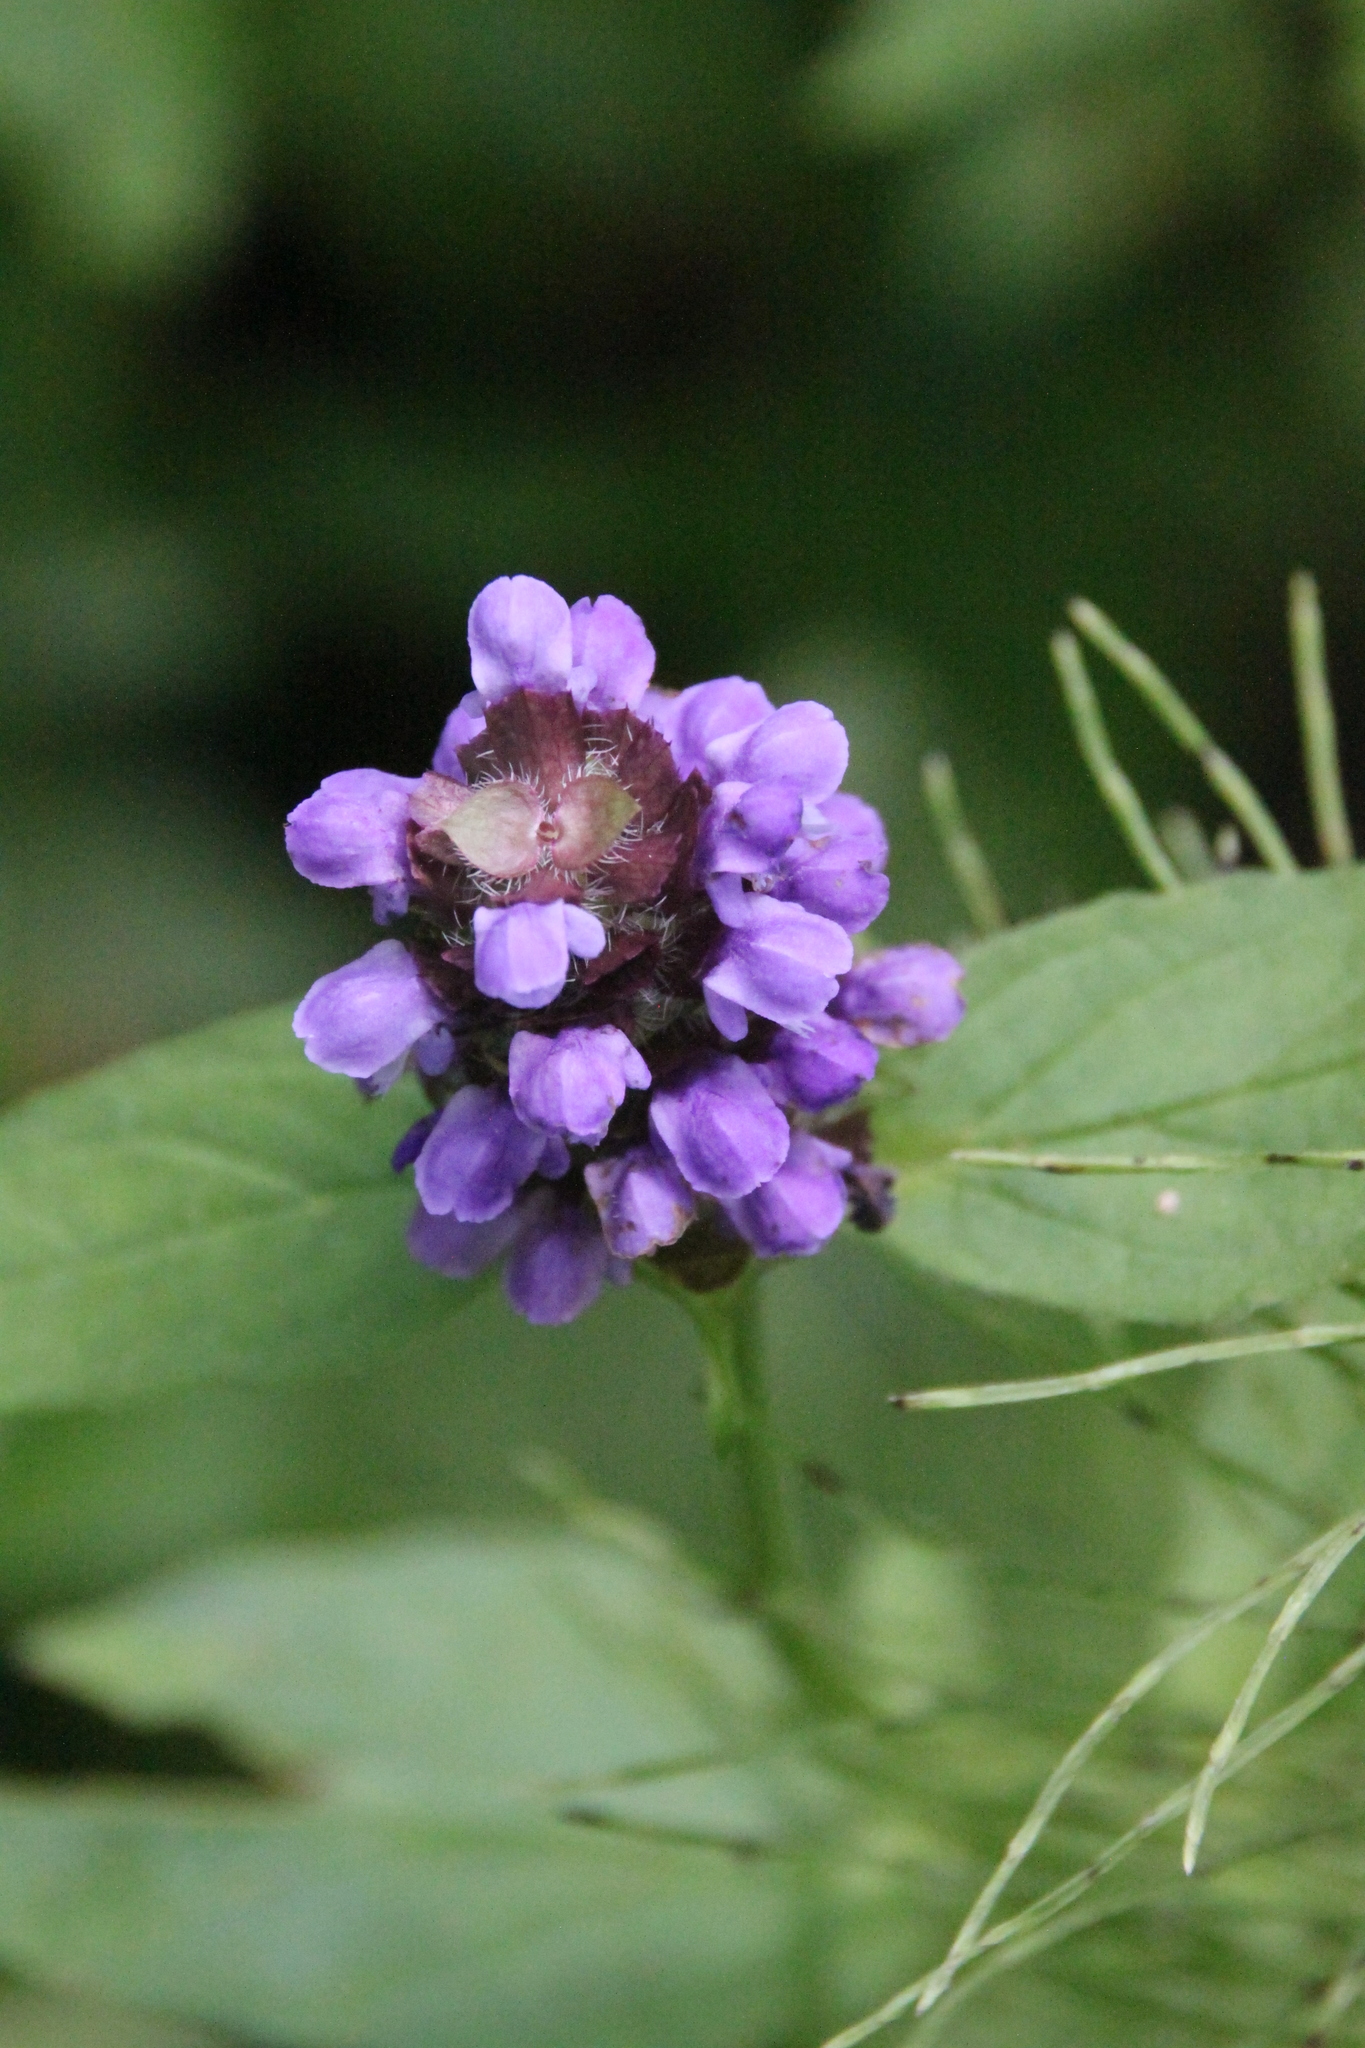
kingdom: Plantae
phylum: Tracheophyta
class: Magnoliopsida
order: Lamiales
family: Lamiaceae
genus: Prunella
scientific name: Prunella vulgaris
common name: Heal-all
